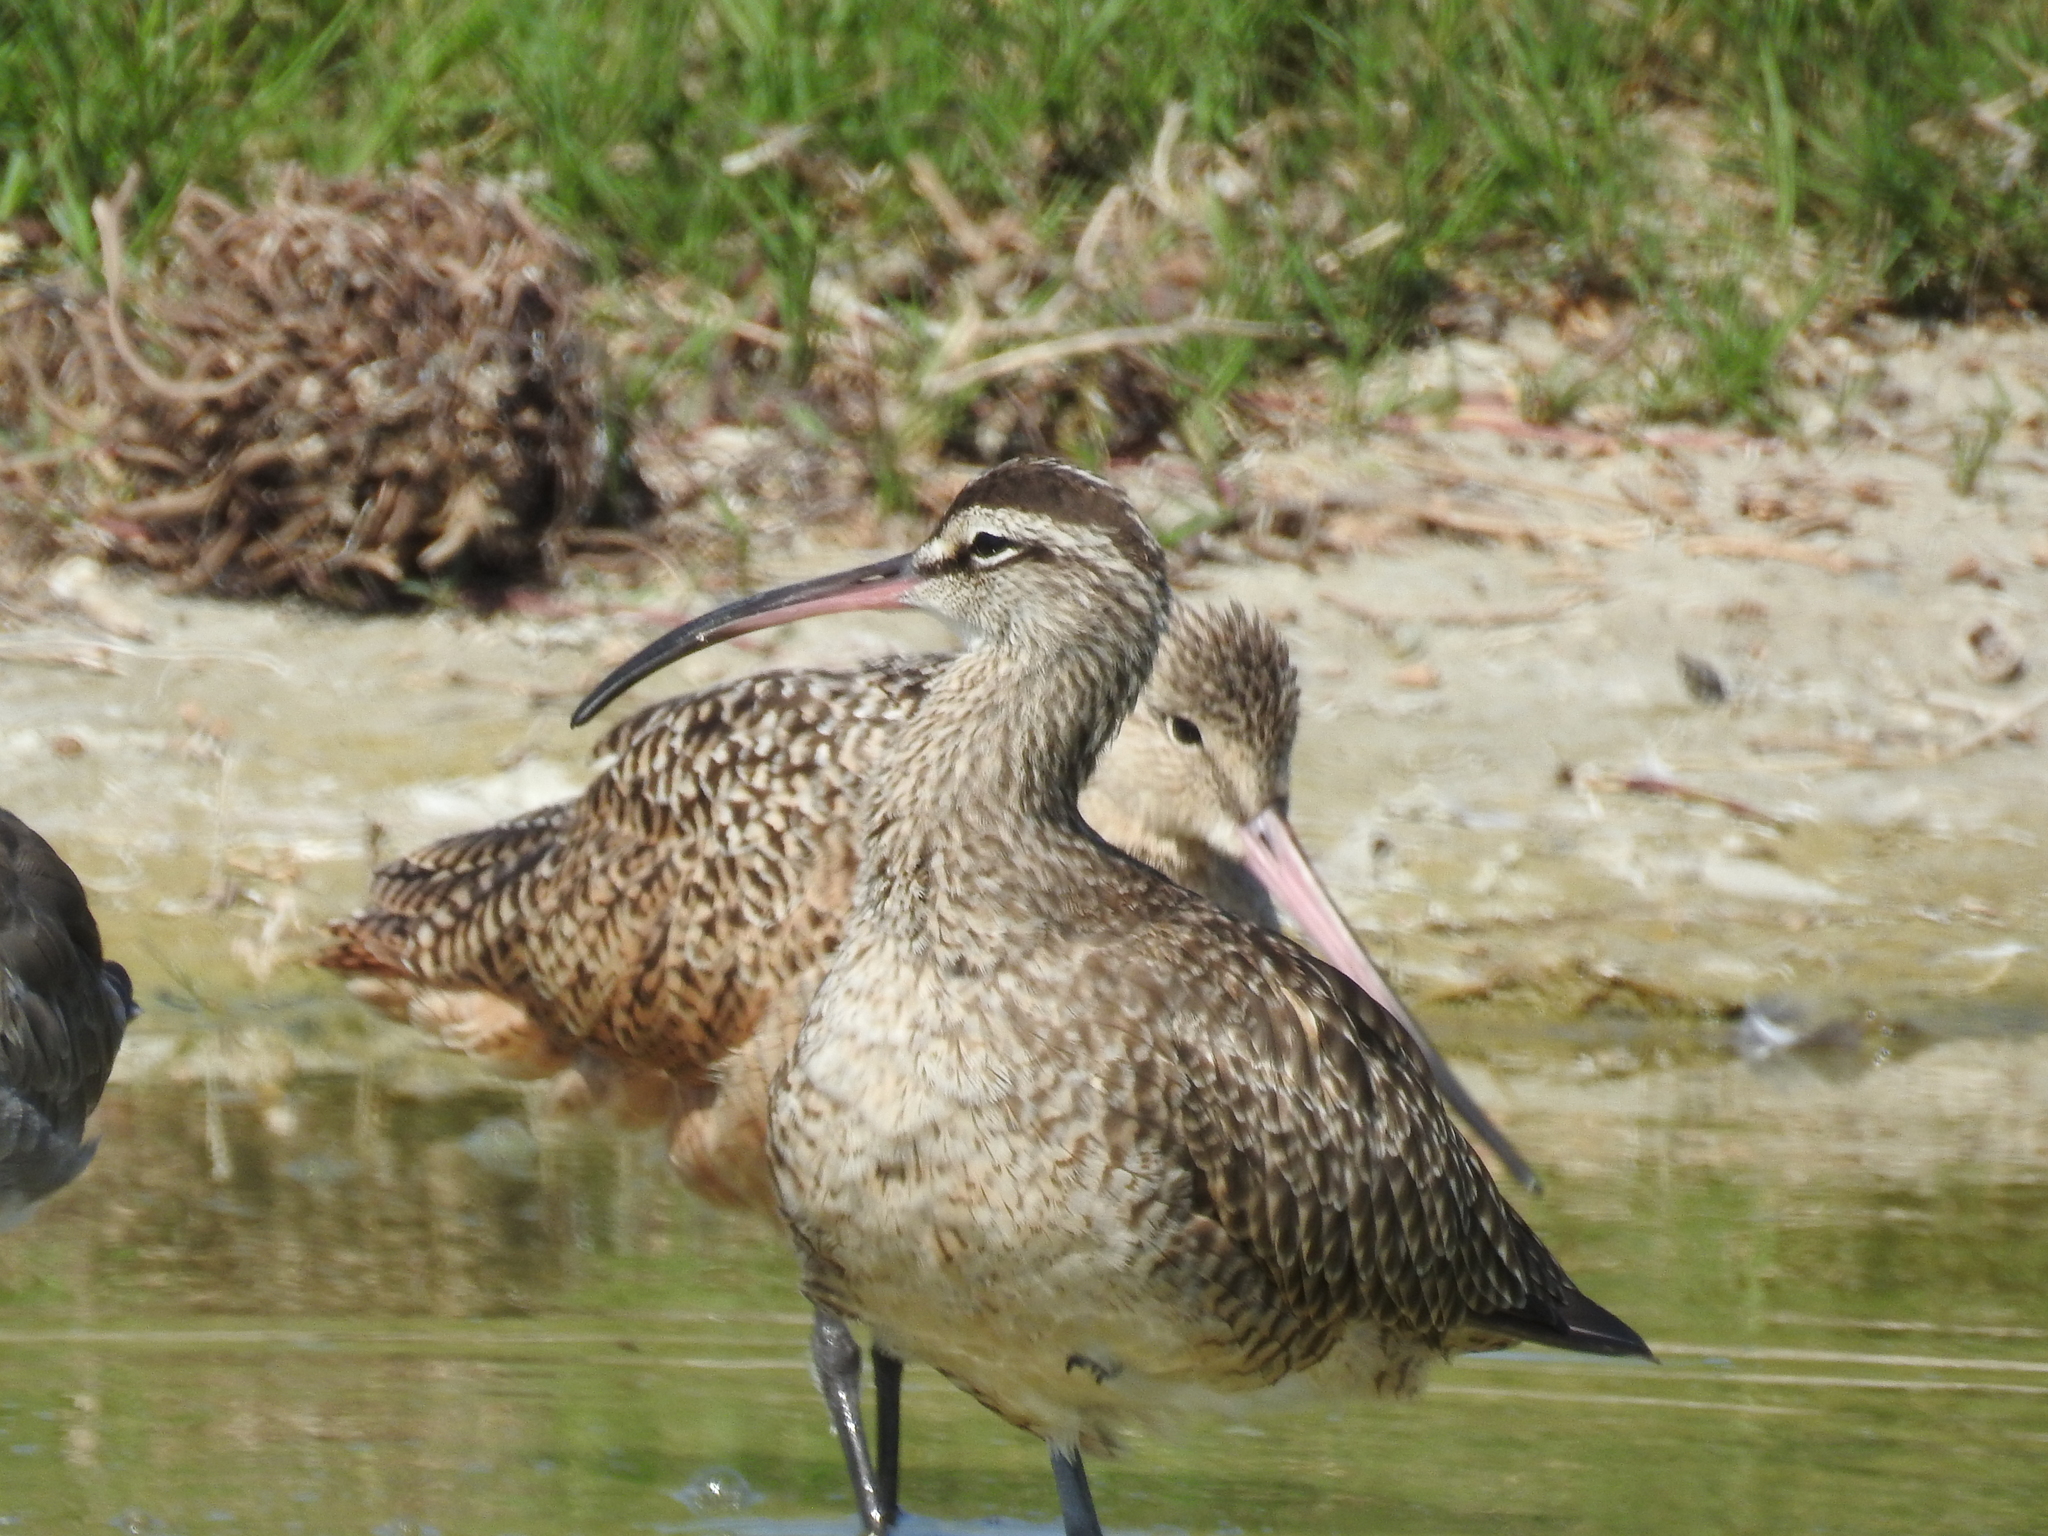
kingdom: Animalia
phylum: Chordata
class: Aves
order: Charadriiformes
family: Scolopacidae
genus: Numenius
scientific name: Numenius phaeopus
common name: Whimbrel
